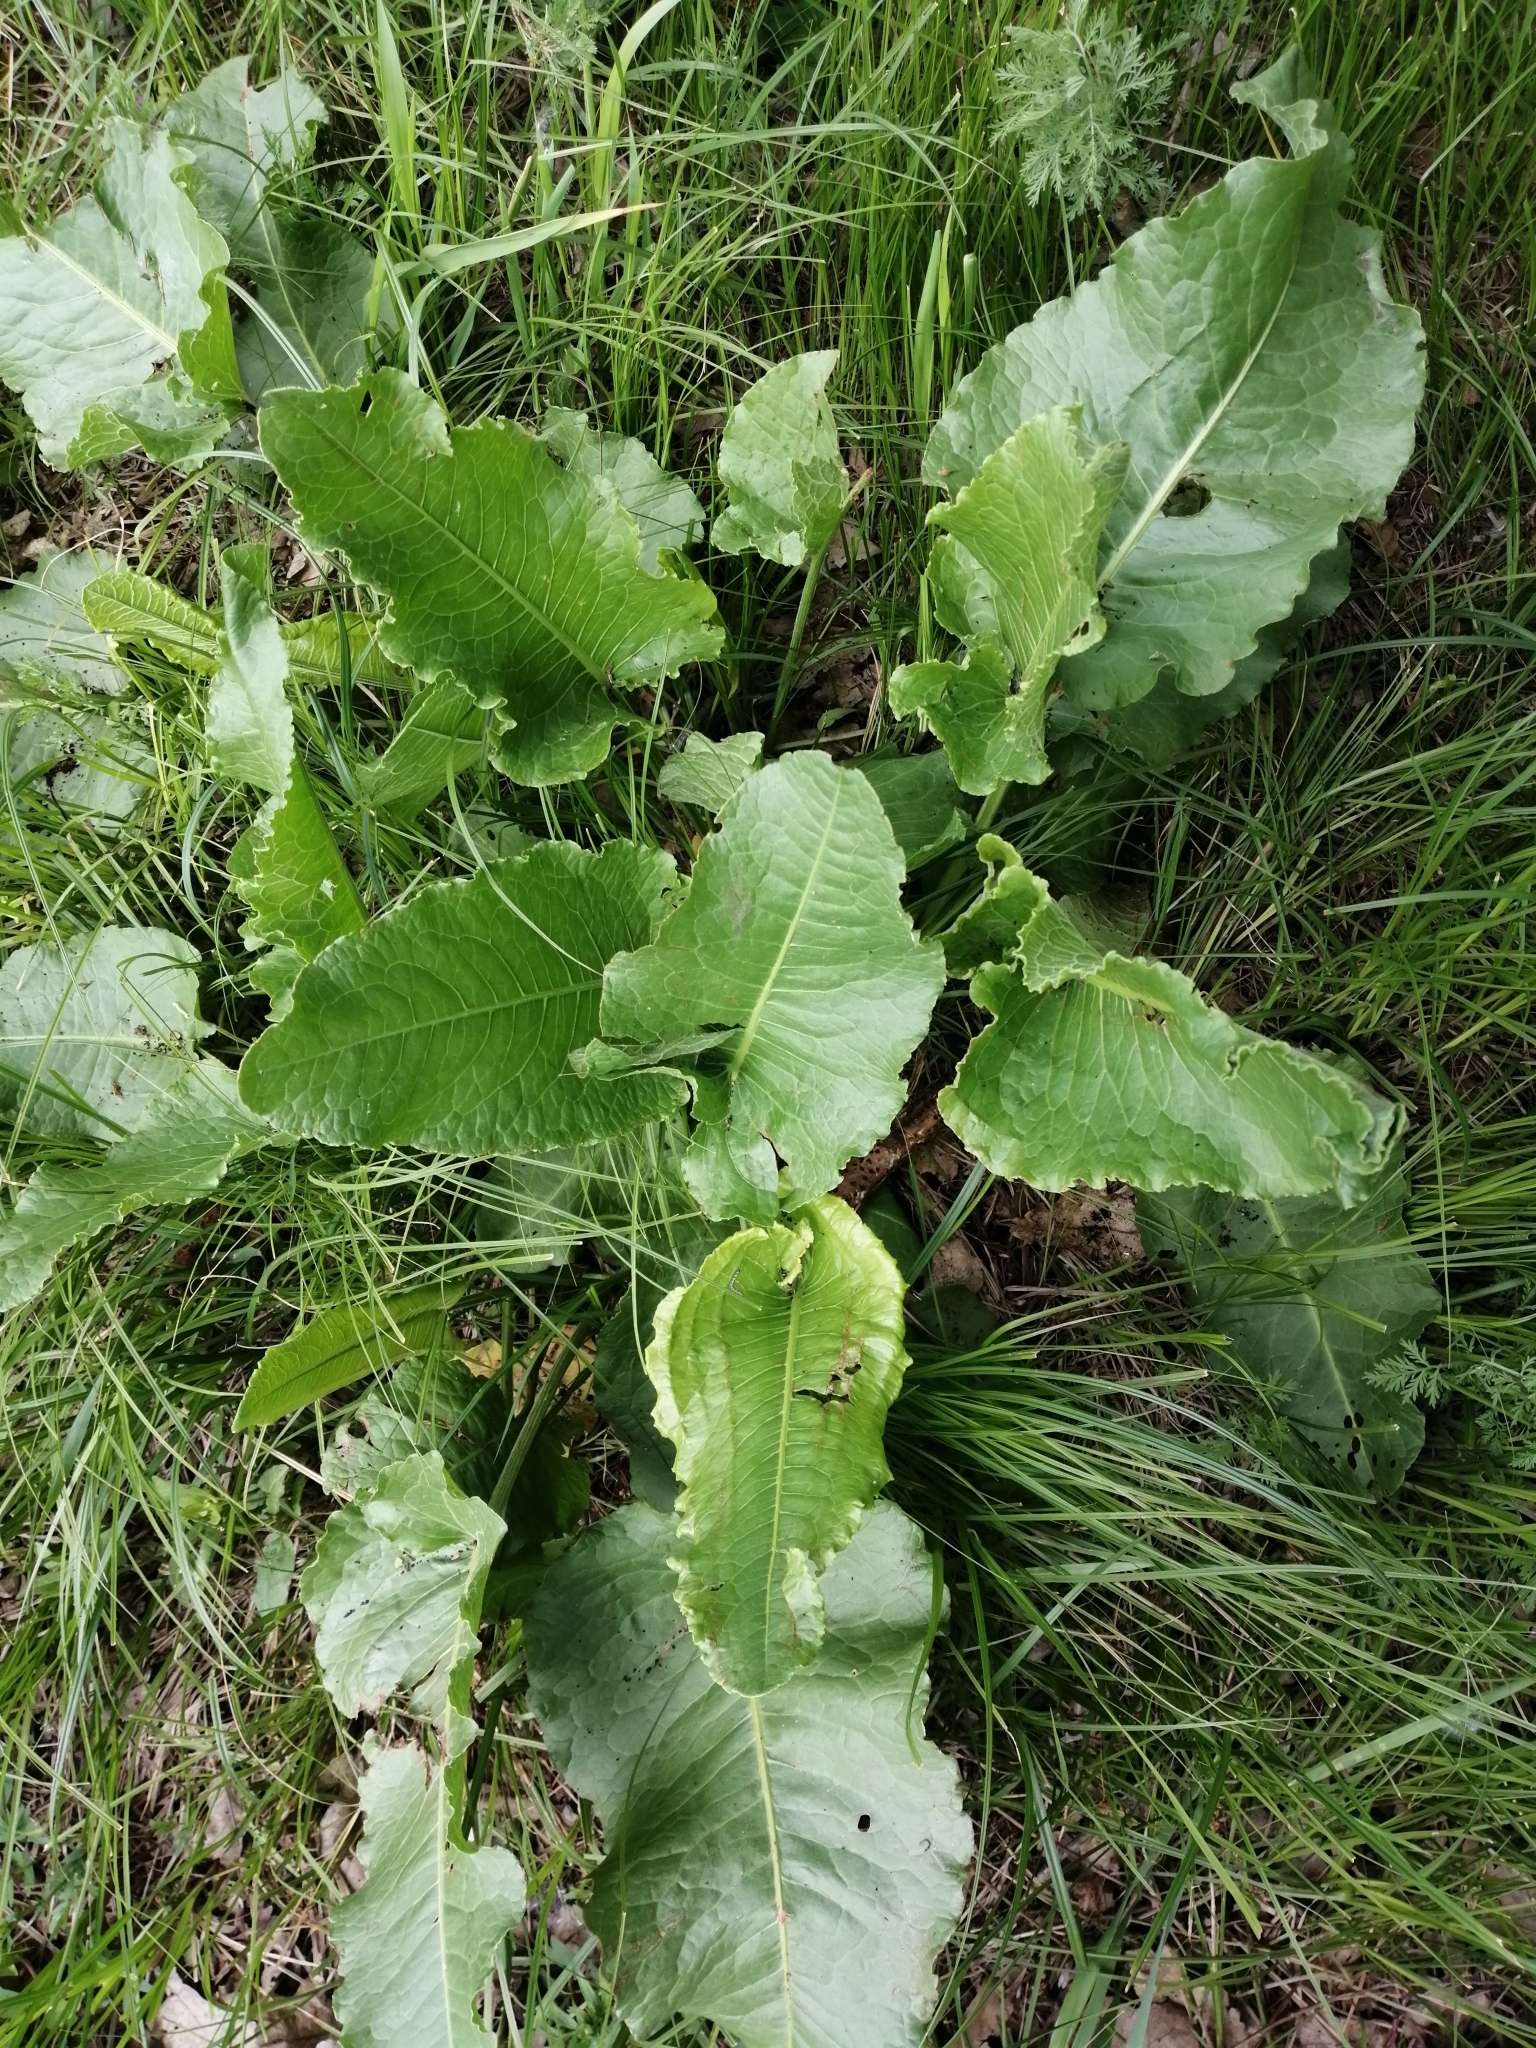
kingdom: Plantae
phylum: Tracheophyta
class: Magnoliopsida
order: Caryophyllales
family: Polygonaceae
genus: Rumex
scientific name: Rumex confertus
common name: Russian dock
